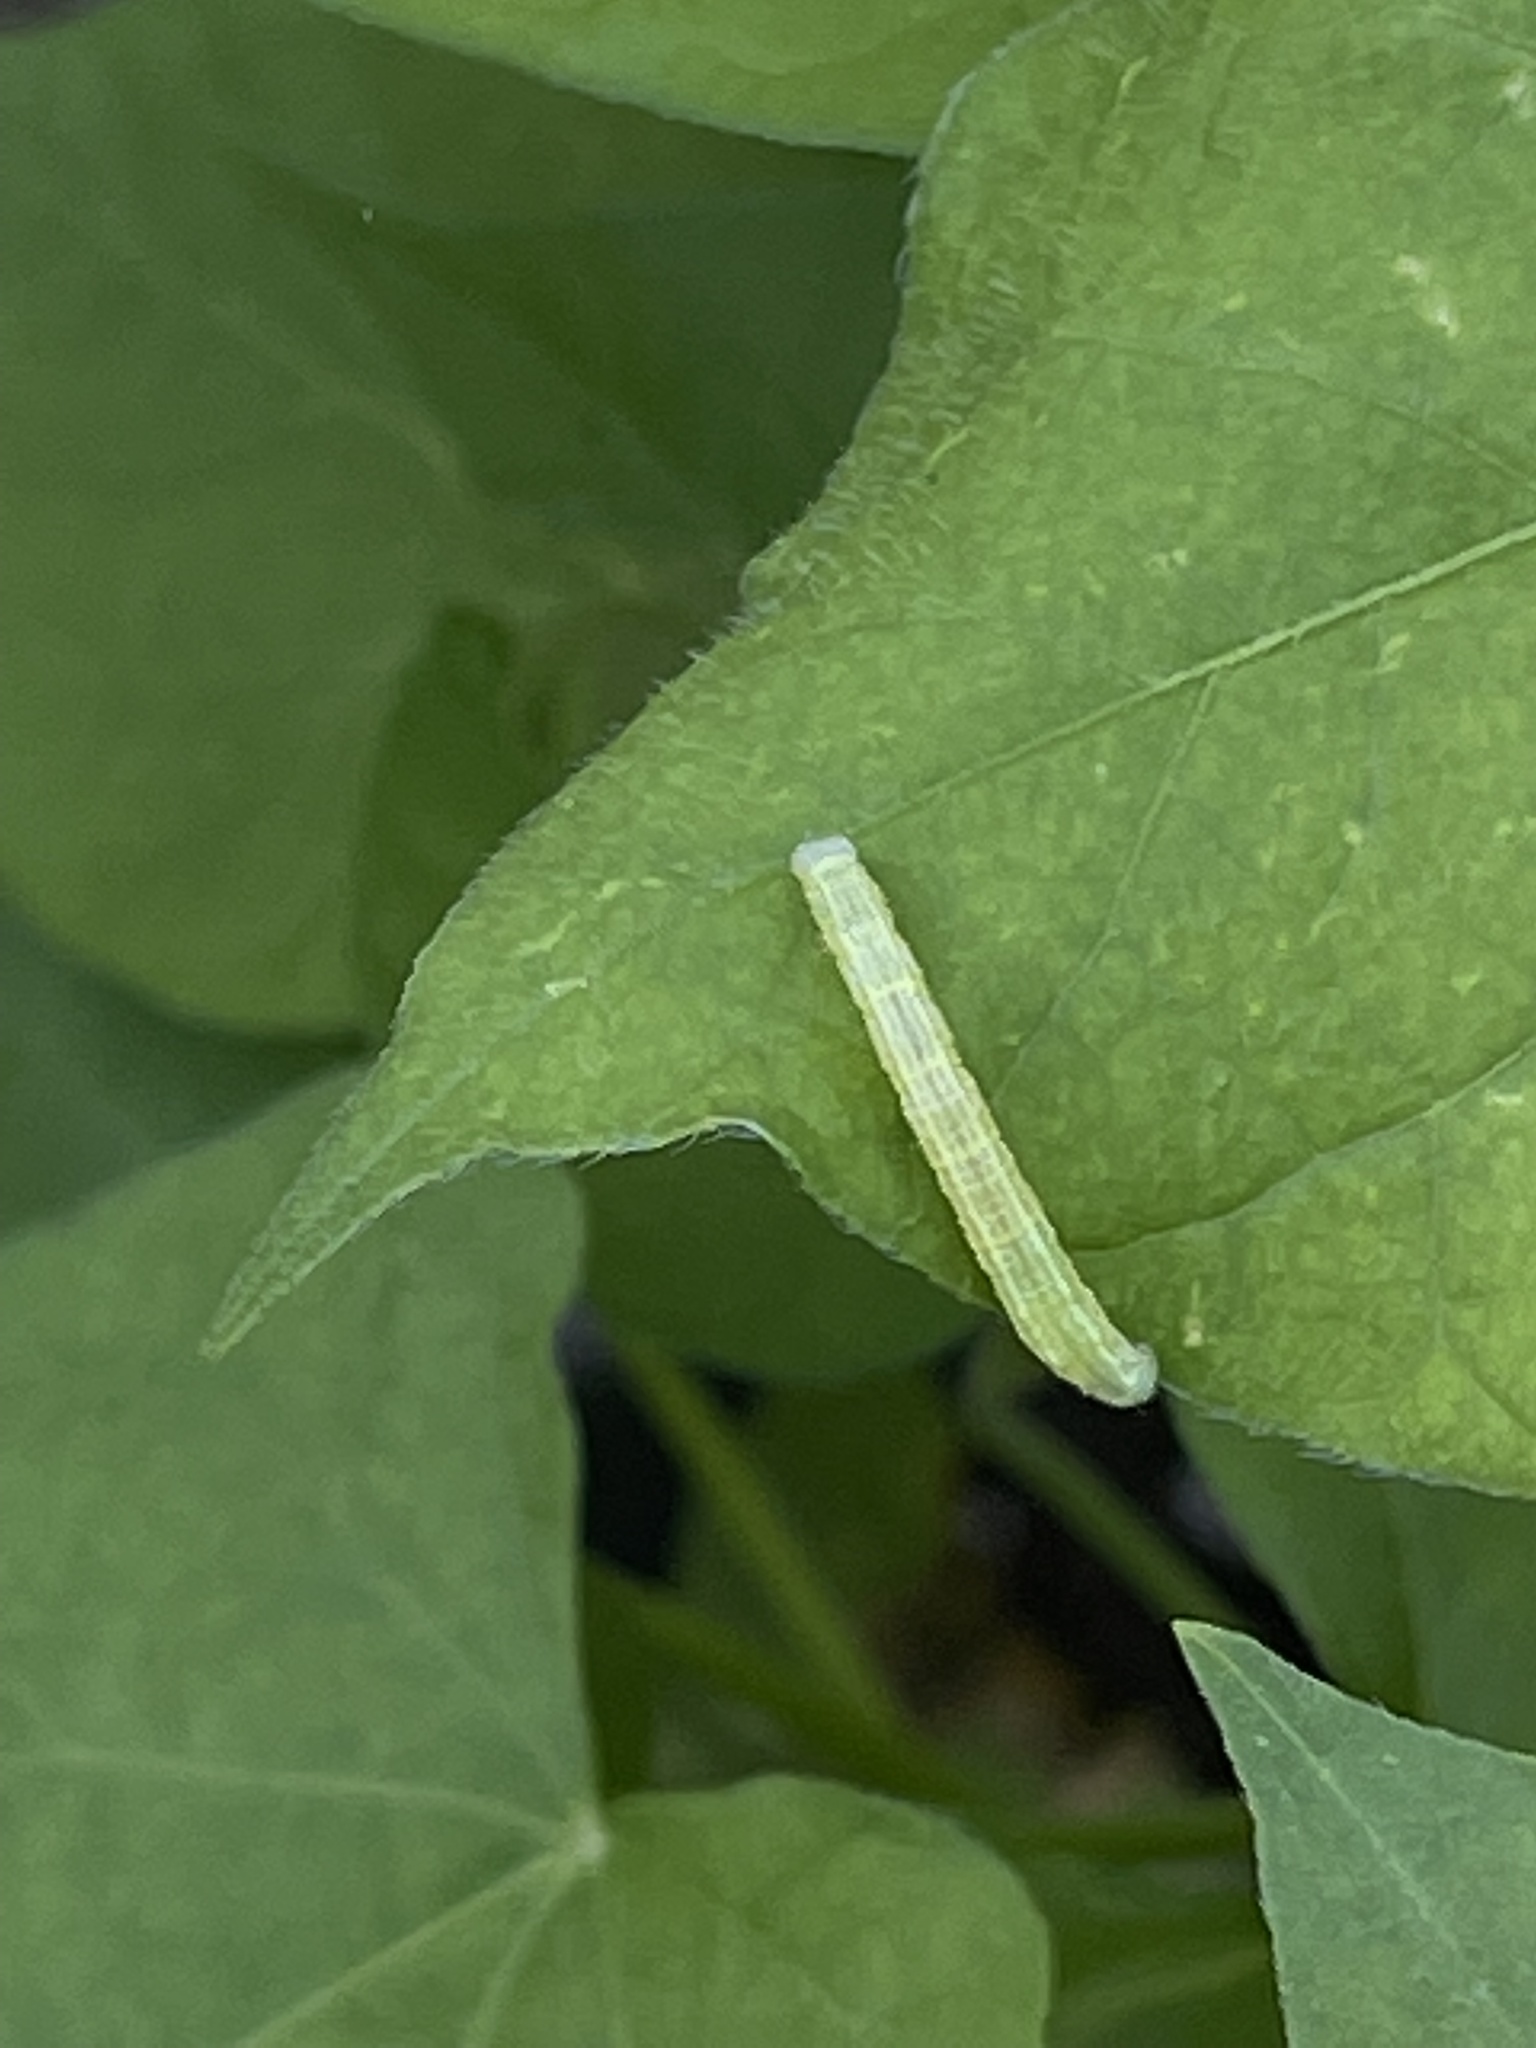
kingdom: Animalia
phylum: Arthropoda
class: Insecta
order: Lepidoptera
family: Geometridae
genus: Melanolophia
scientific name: Melanolophia canadaria
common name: Canadian melanolophia
